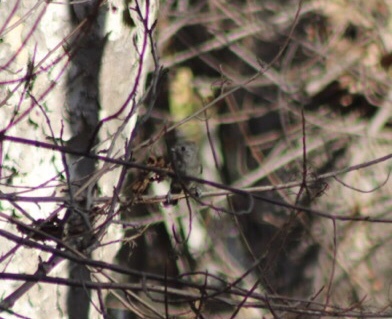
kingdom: Animalia
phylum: Chordata
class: Aves
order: Passeriformes
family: Paridae
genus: Baeolophus
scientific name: Baeolophus inornatus
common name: Oak titmouse
